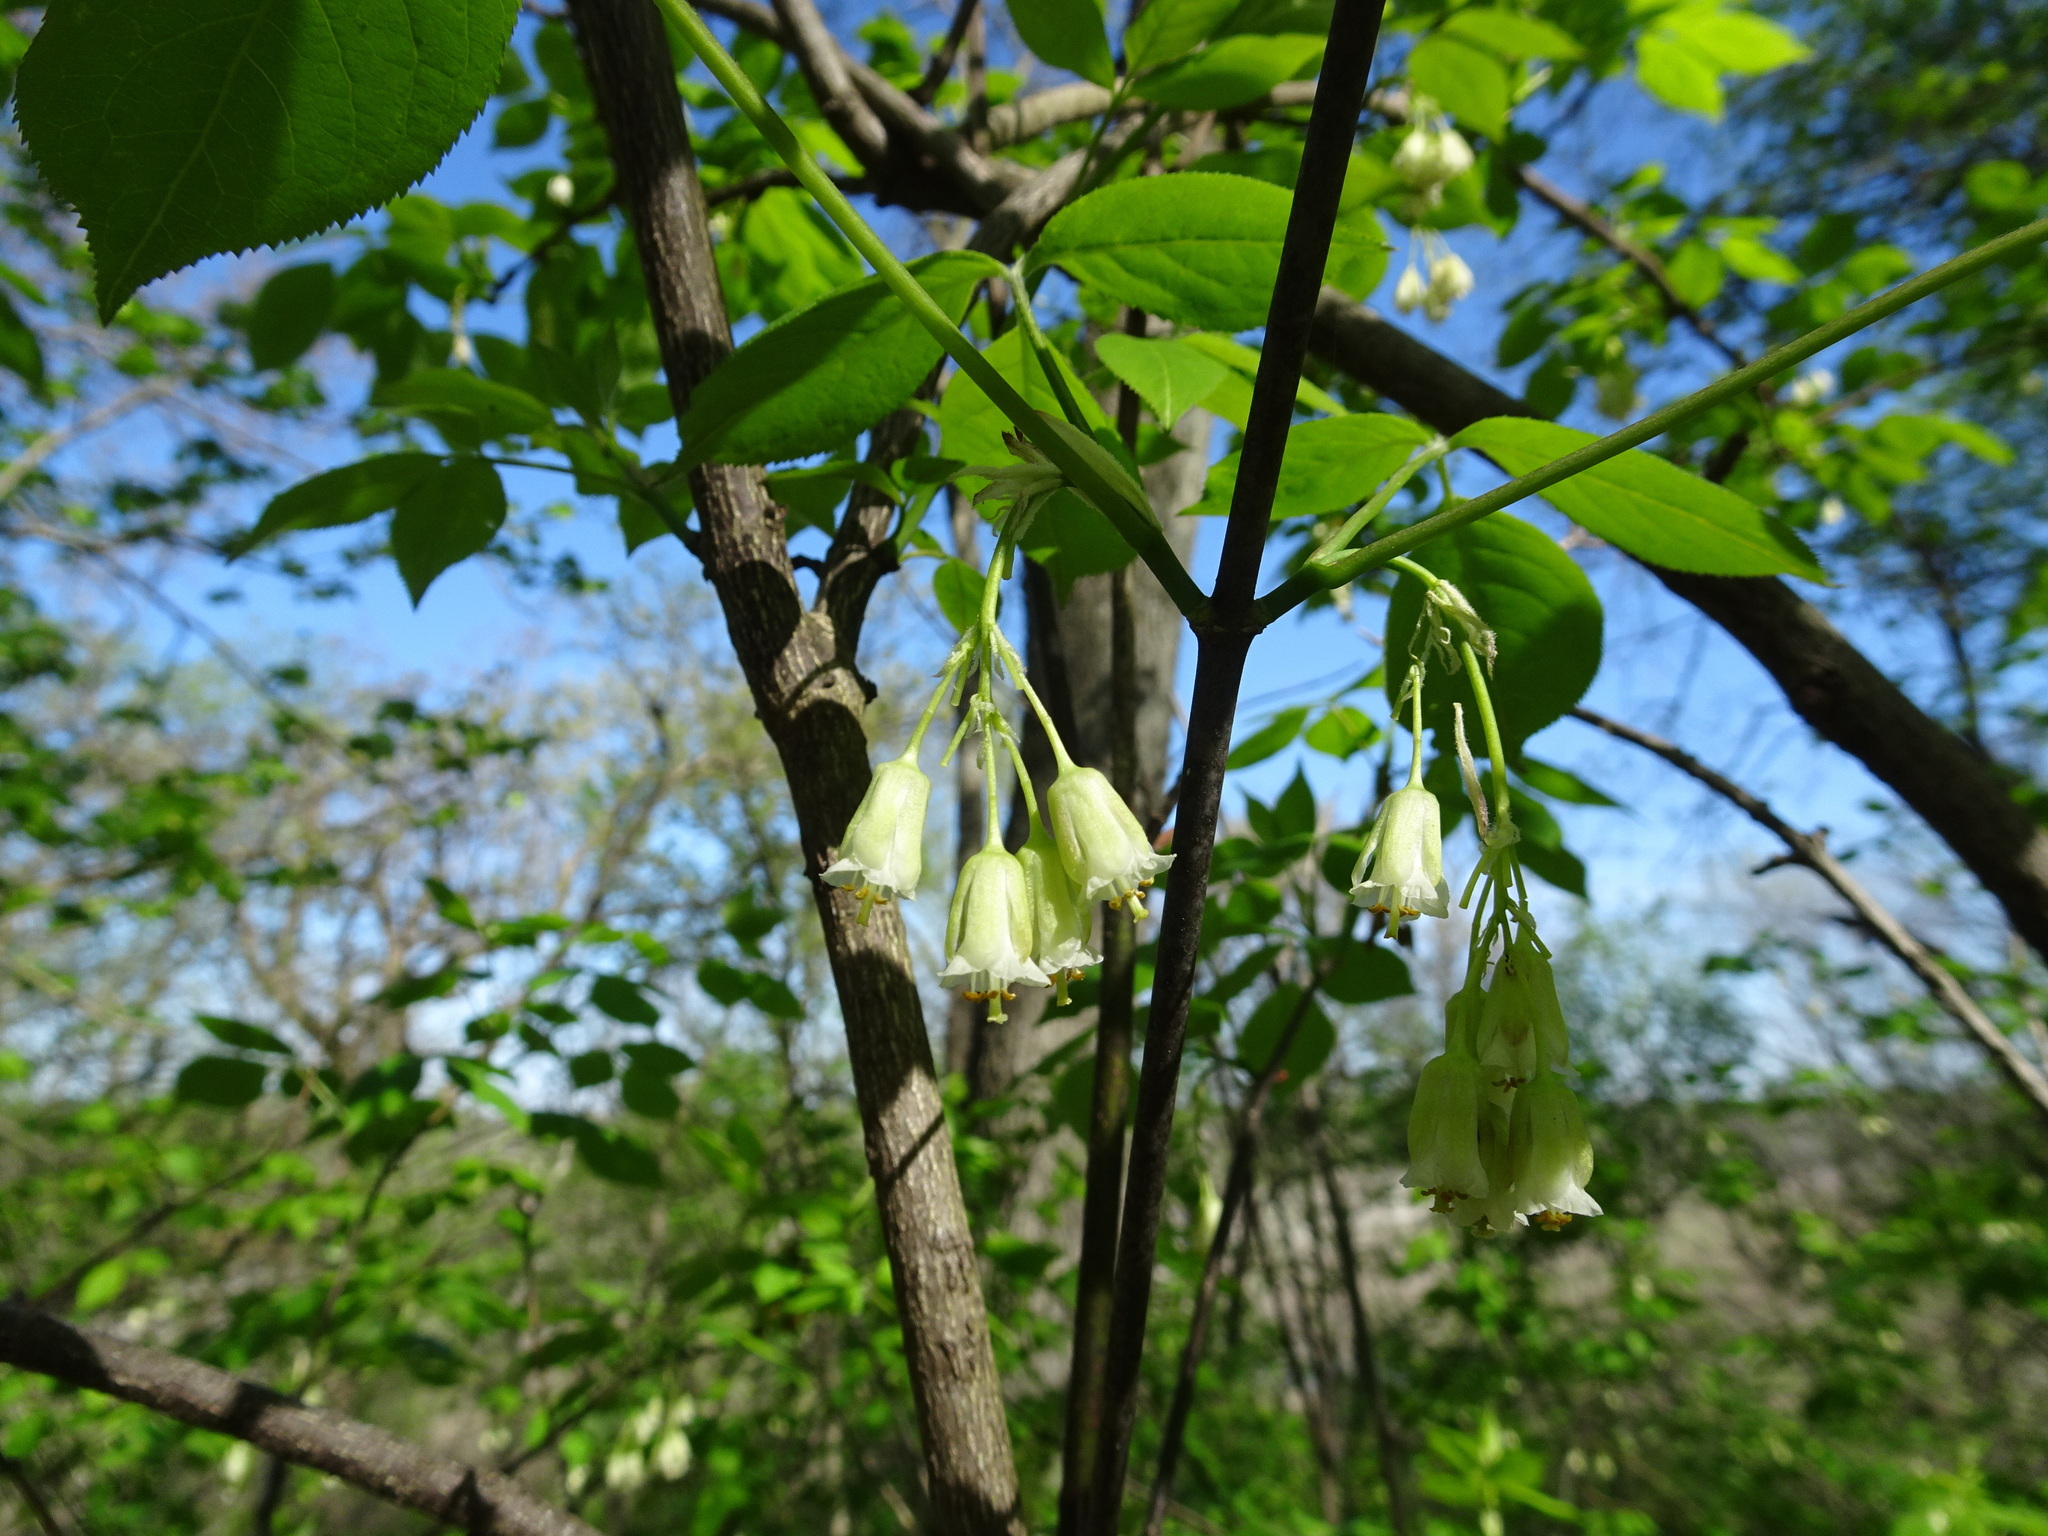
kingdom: Plantae
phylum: Tracheophyta
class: Magnoliopsida
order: Crossosomatales
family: Staphyleaceae
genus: Staphylea
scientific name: Staphylea trifolia
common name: American bladdernut
